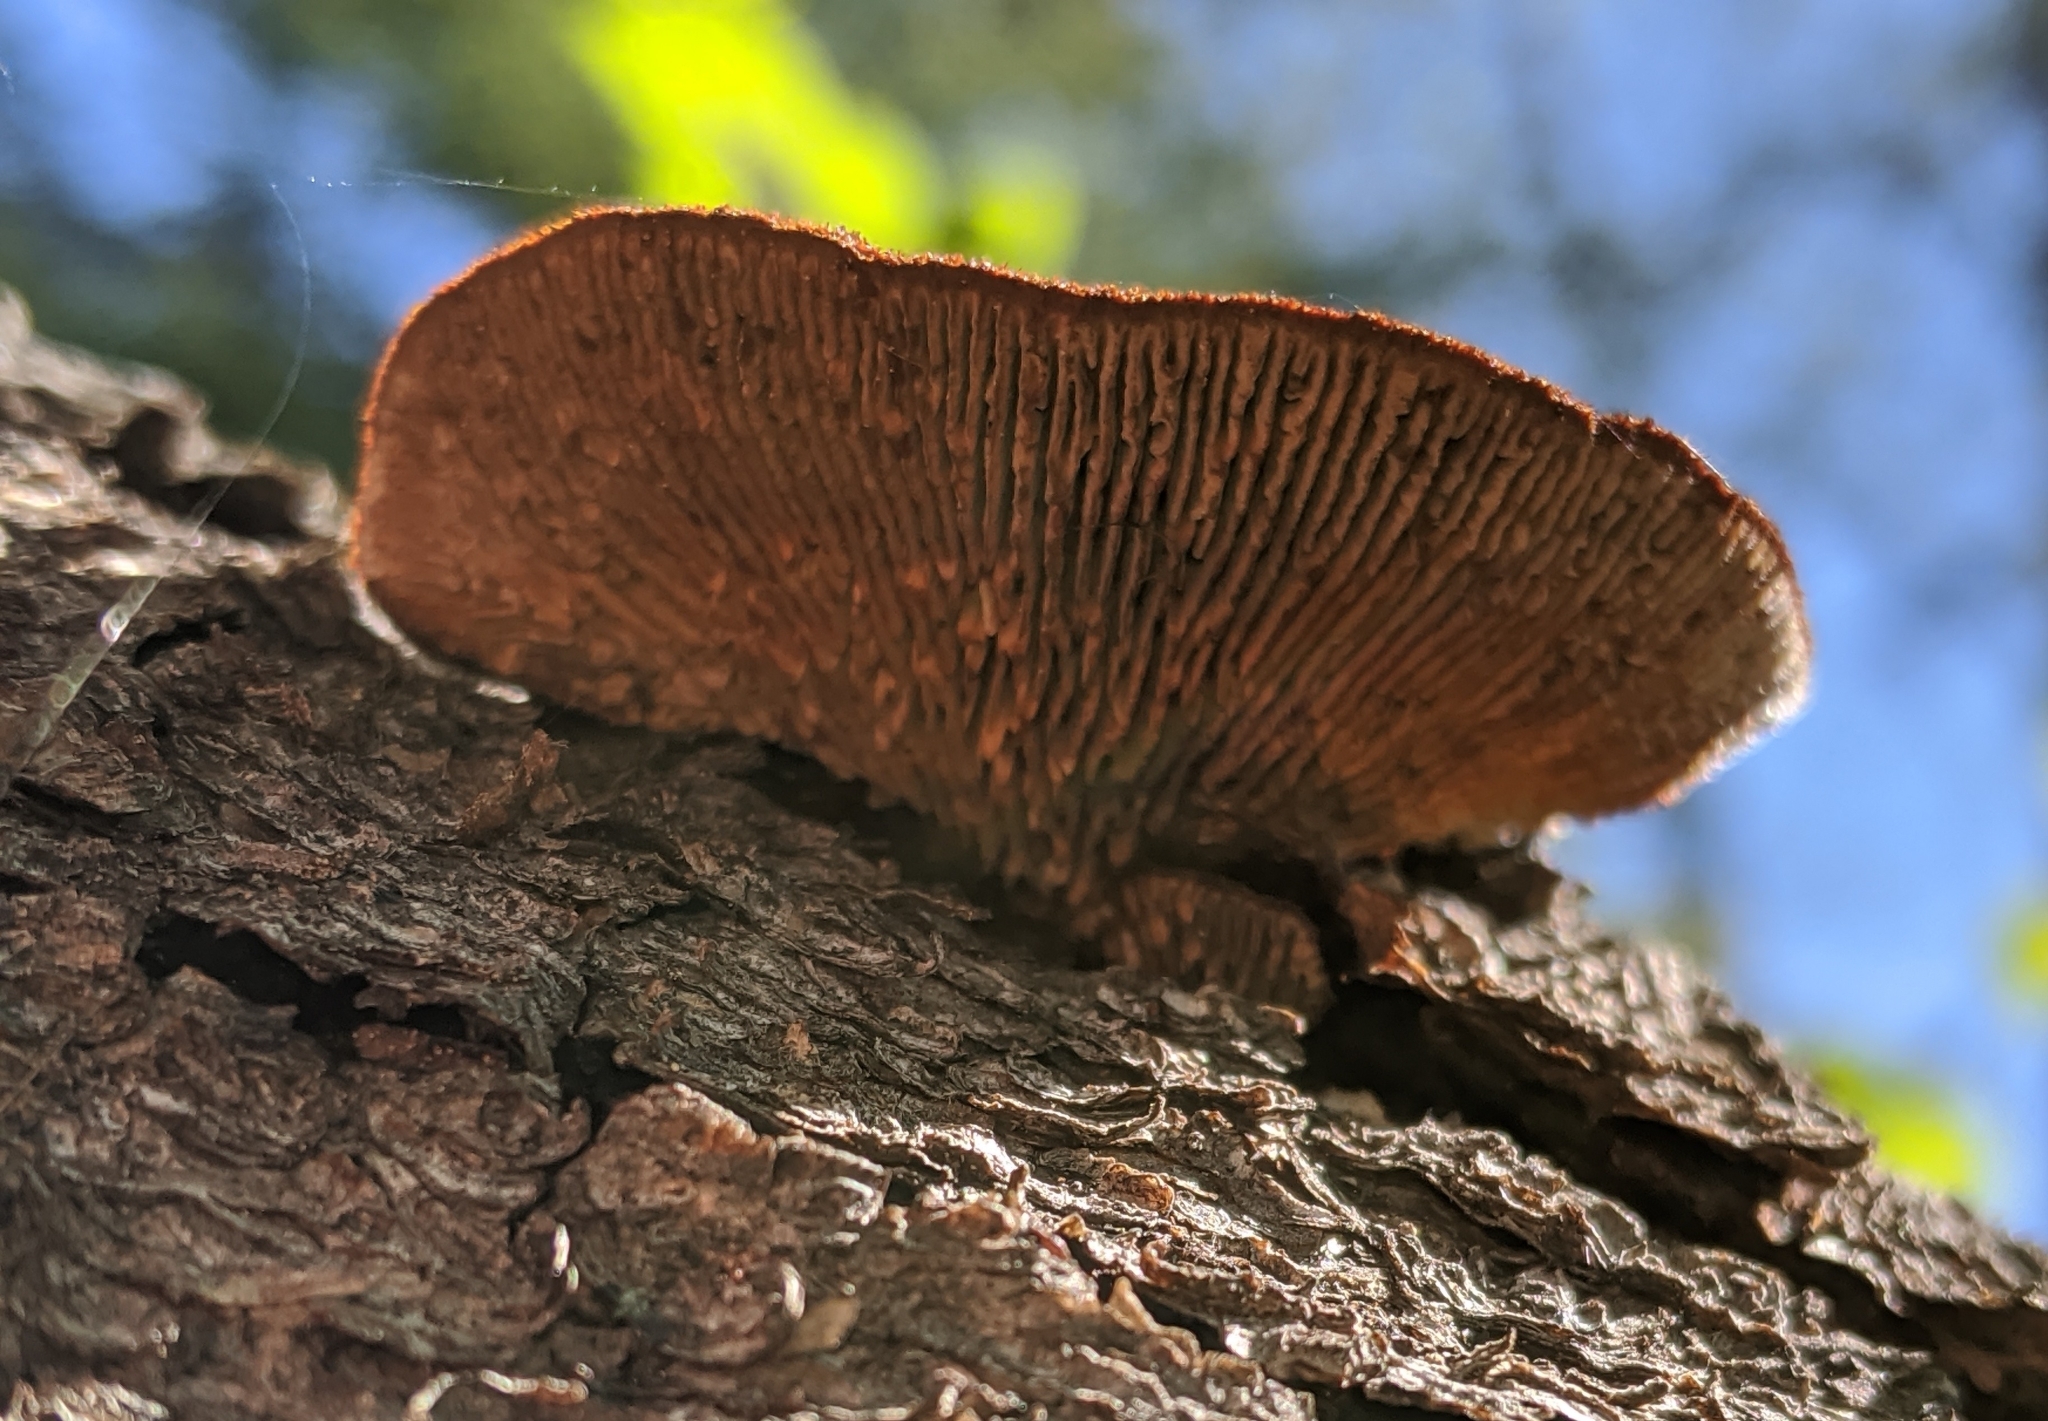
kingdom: Fungi
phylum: Basidiomycota
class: Agaricomycetes
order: Gloeophyllales
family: Gloeophyllaceae
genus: Gloeophyllum
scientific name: Gloeophyllum sepiarium
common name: Conifer mazegill
